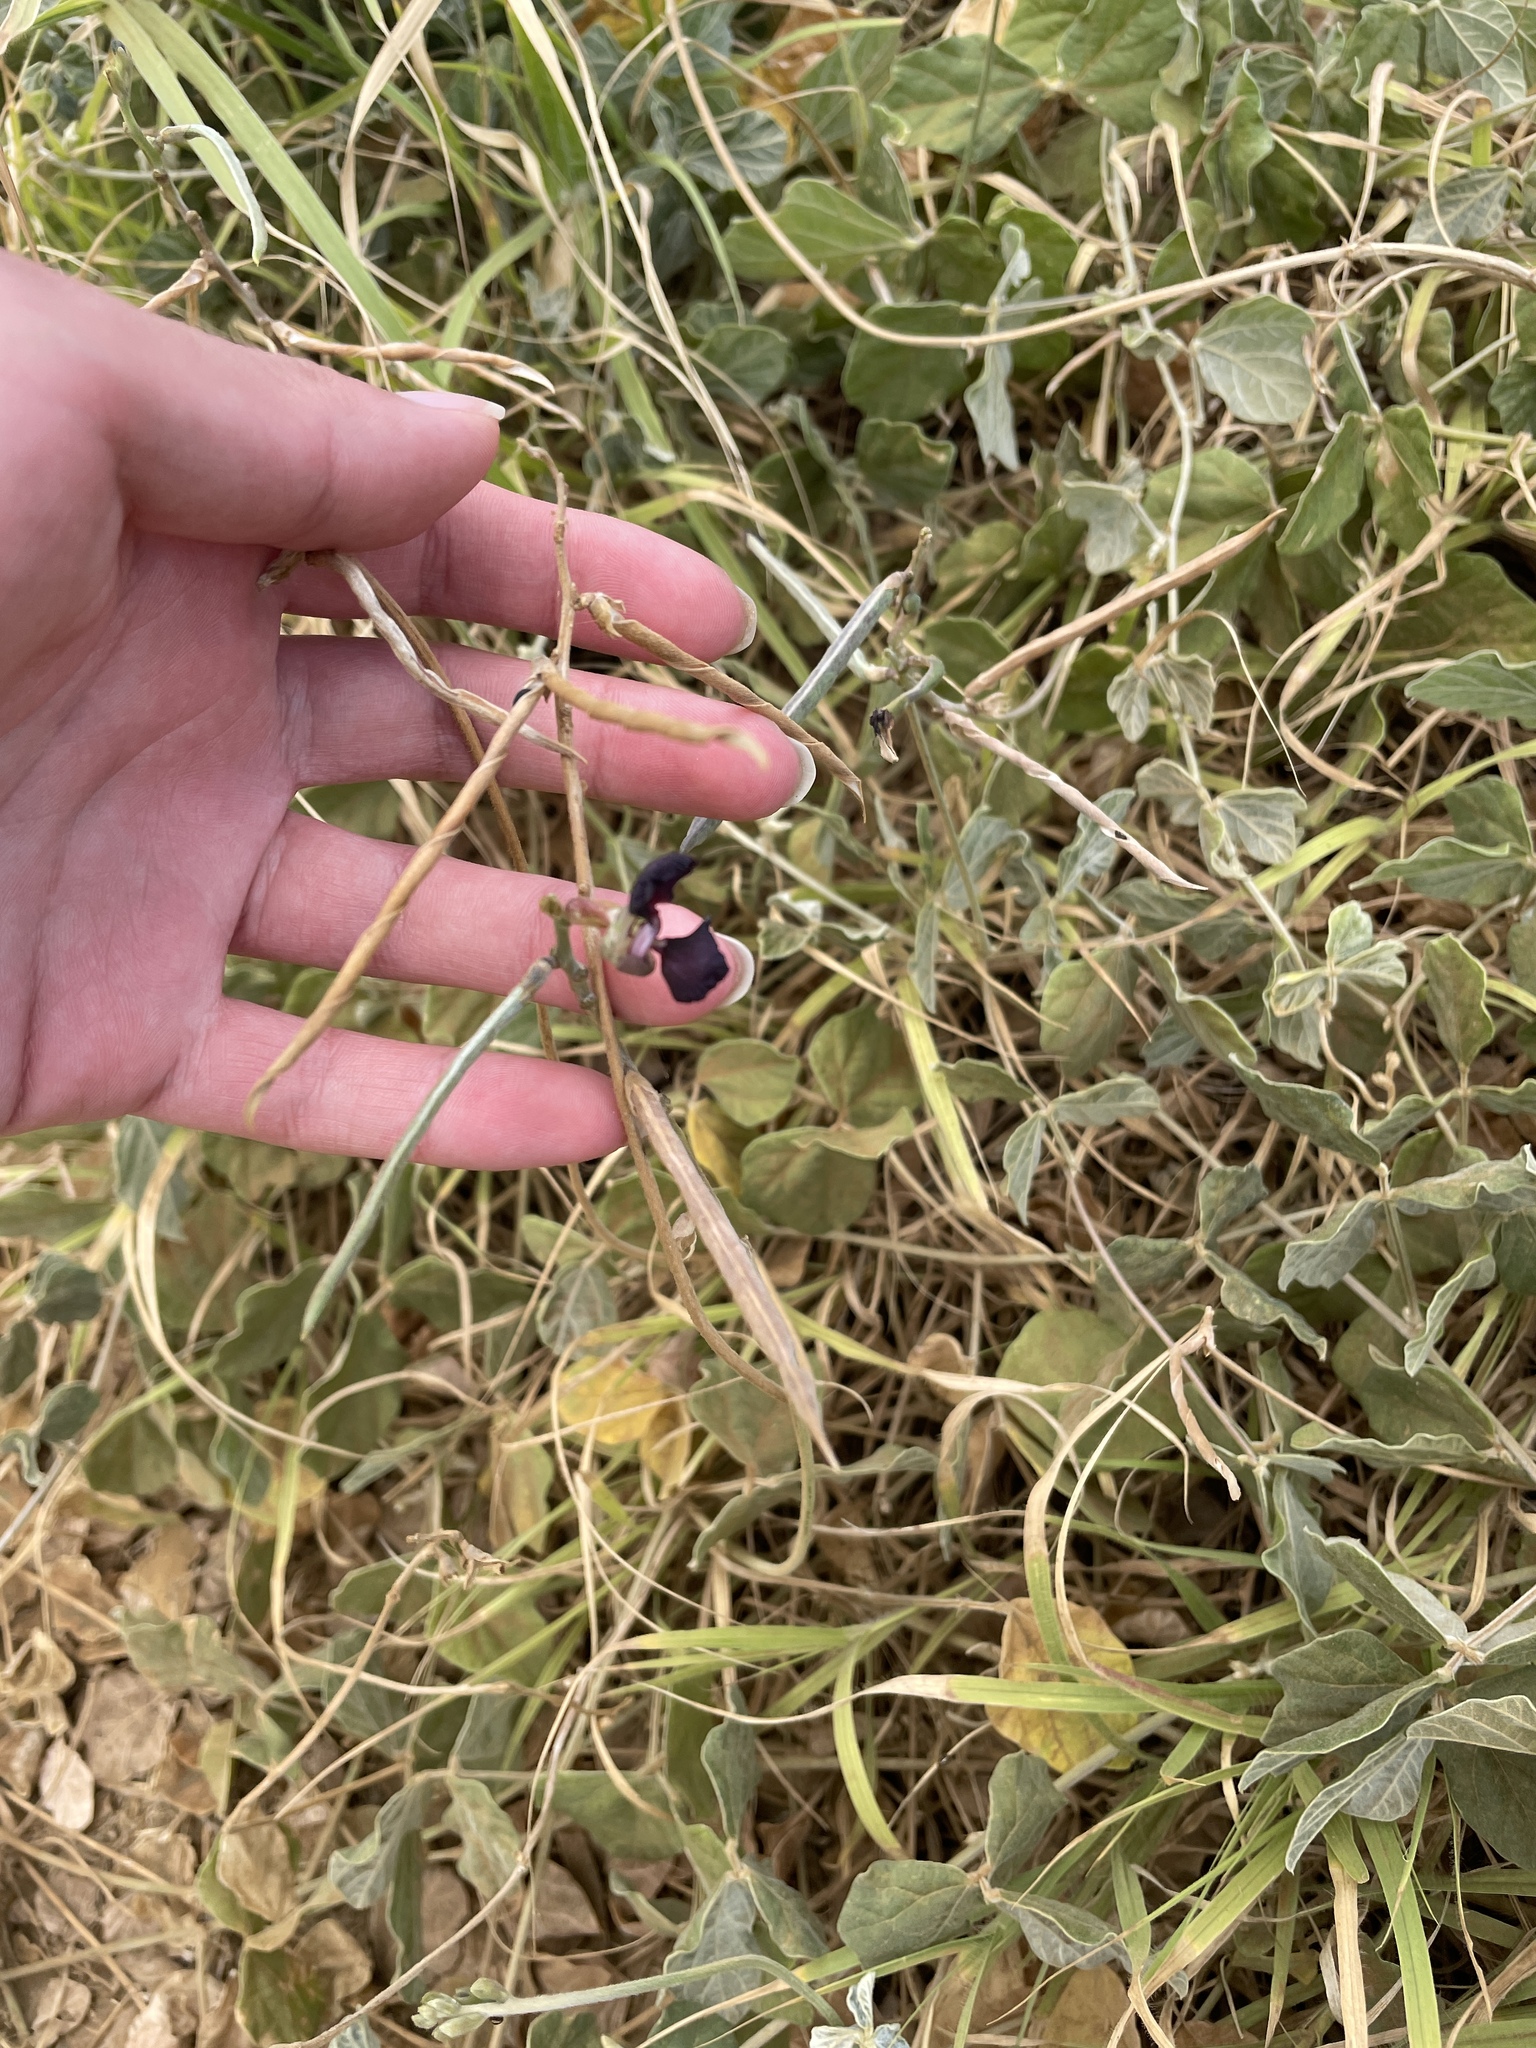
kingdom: Plantae
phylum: Tracheophyta
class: Magnoliopsida
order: Fabales
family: Fabaceae
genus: Macroptilium
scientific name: Macroptilium atropurpureum
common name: Purple bushbean
